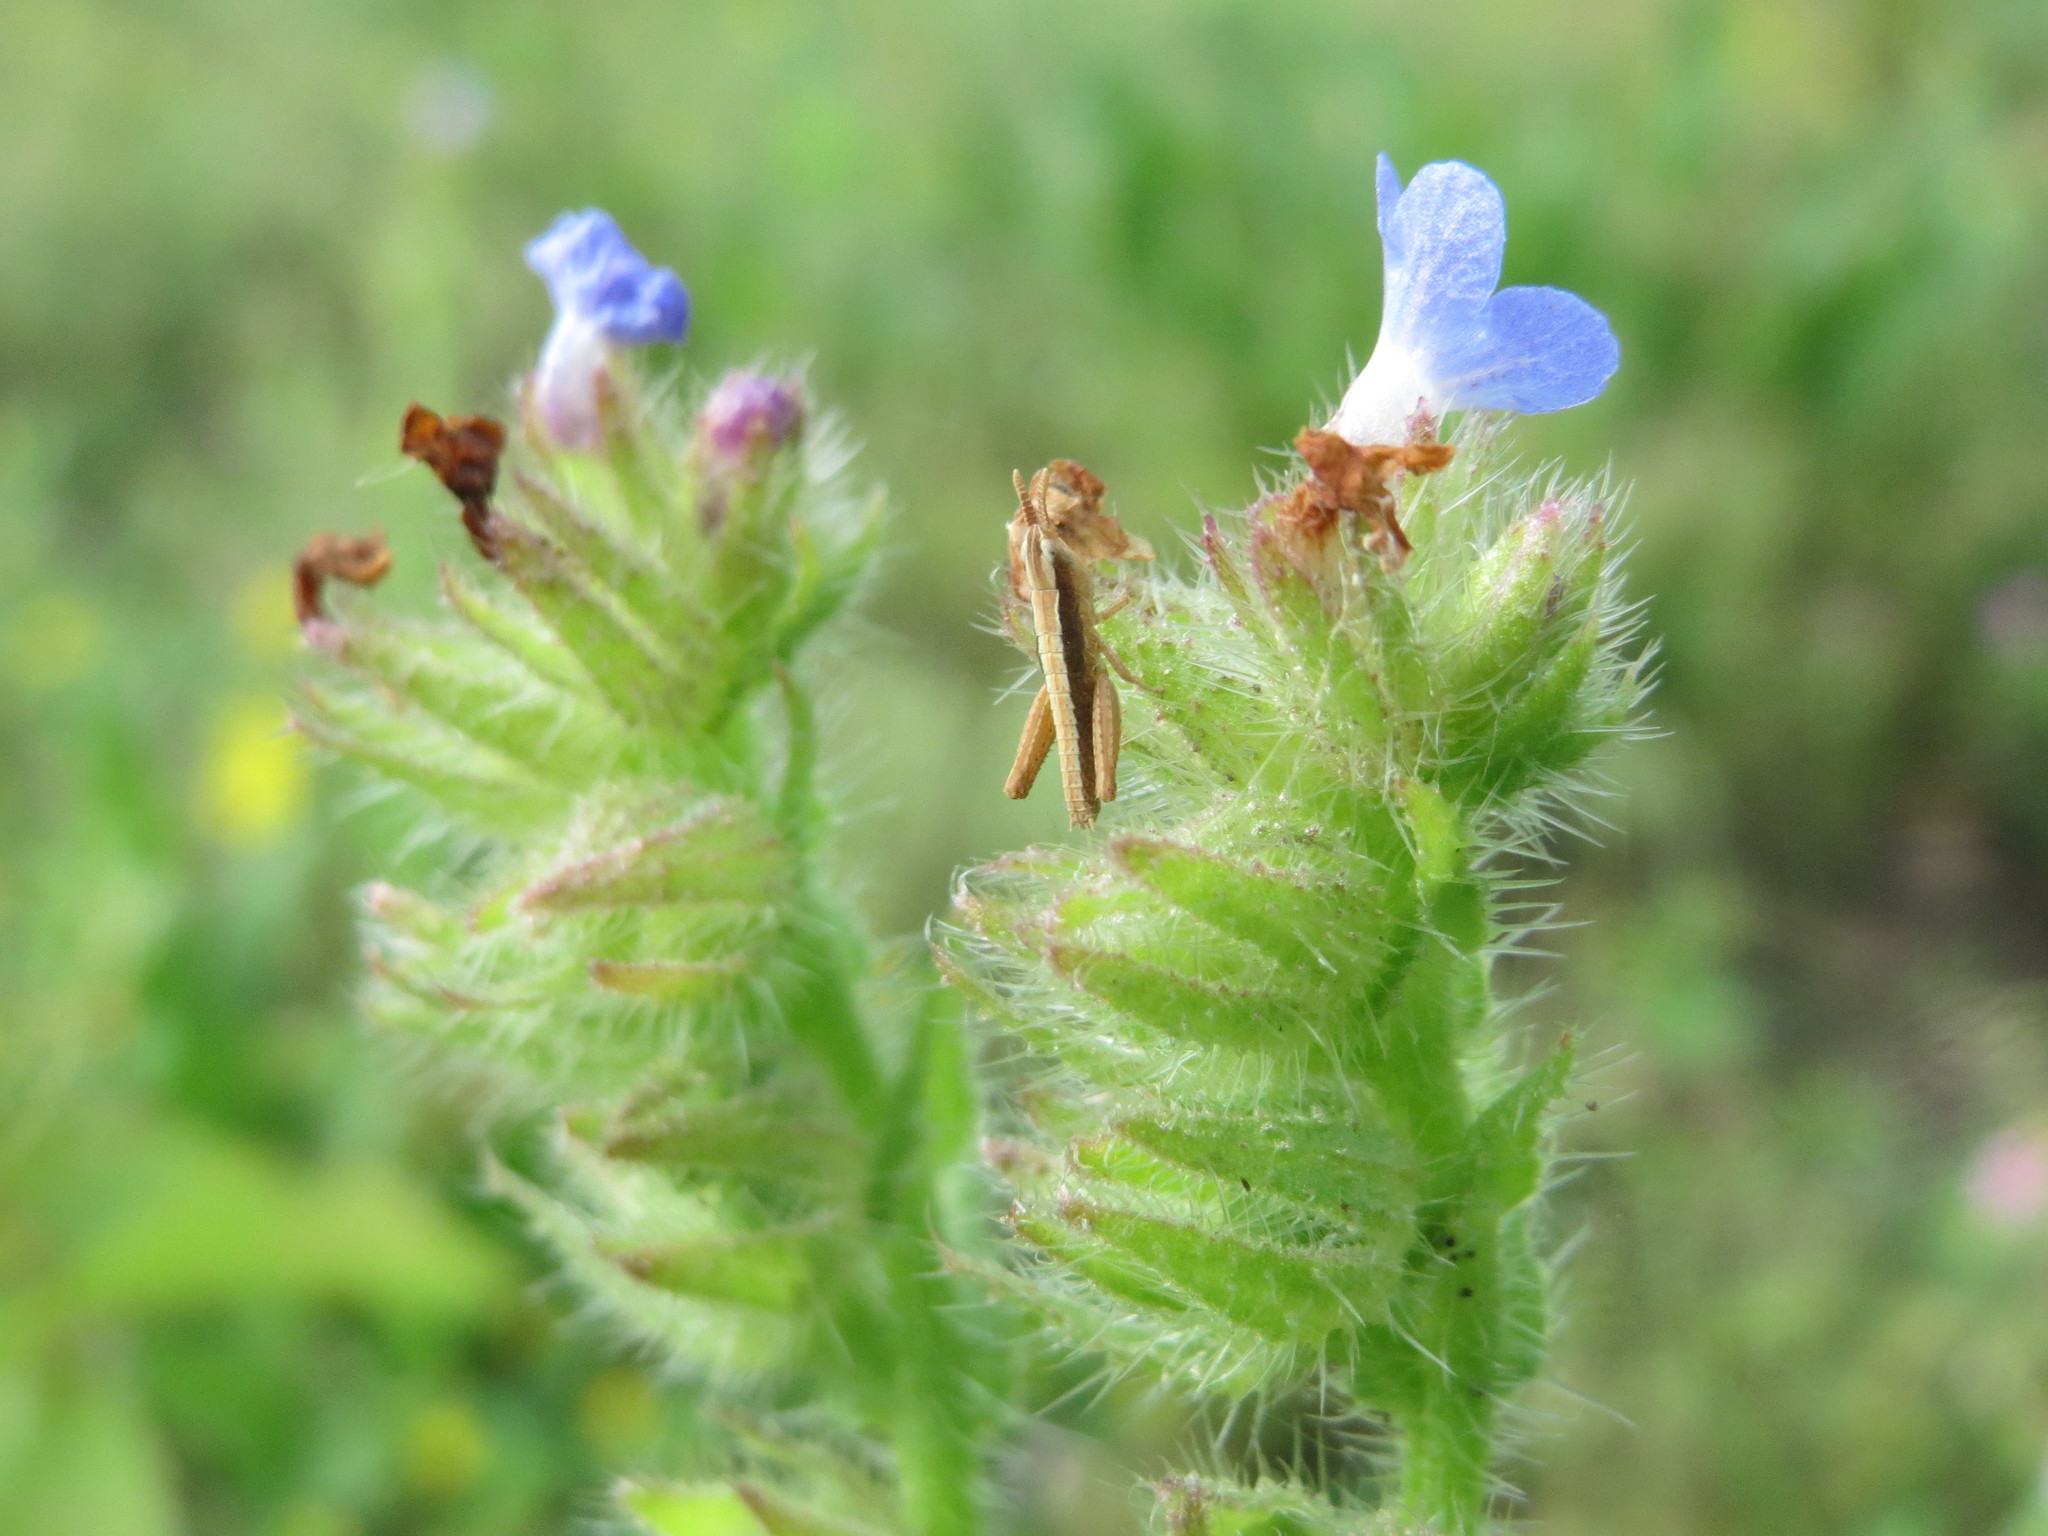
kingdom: Plantae
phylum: Tracheophyta
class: Magnoliopsida
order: Boraginales
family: Boraginaceae
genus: Lycopsis
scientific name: Lycopsis arvensis
